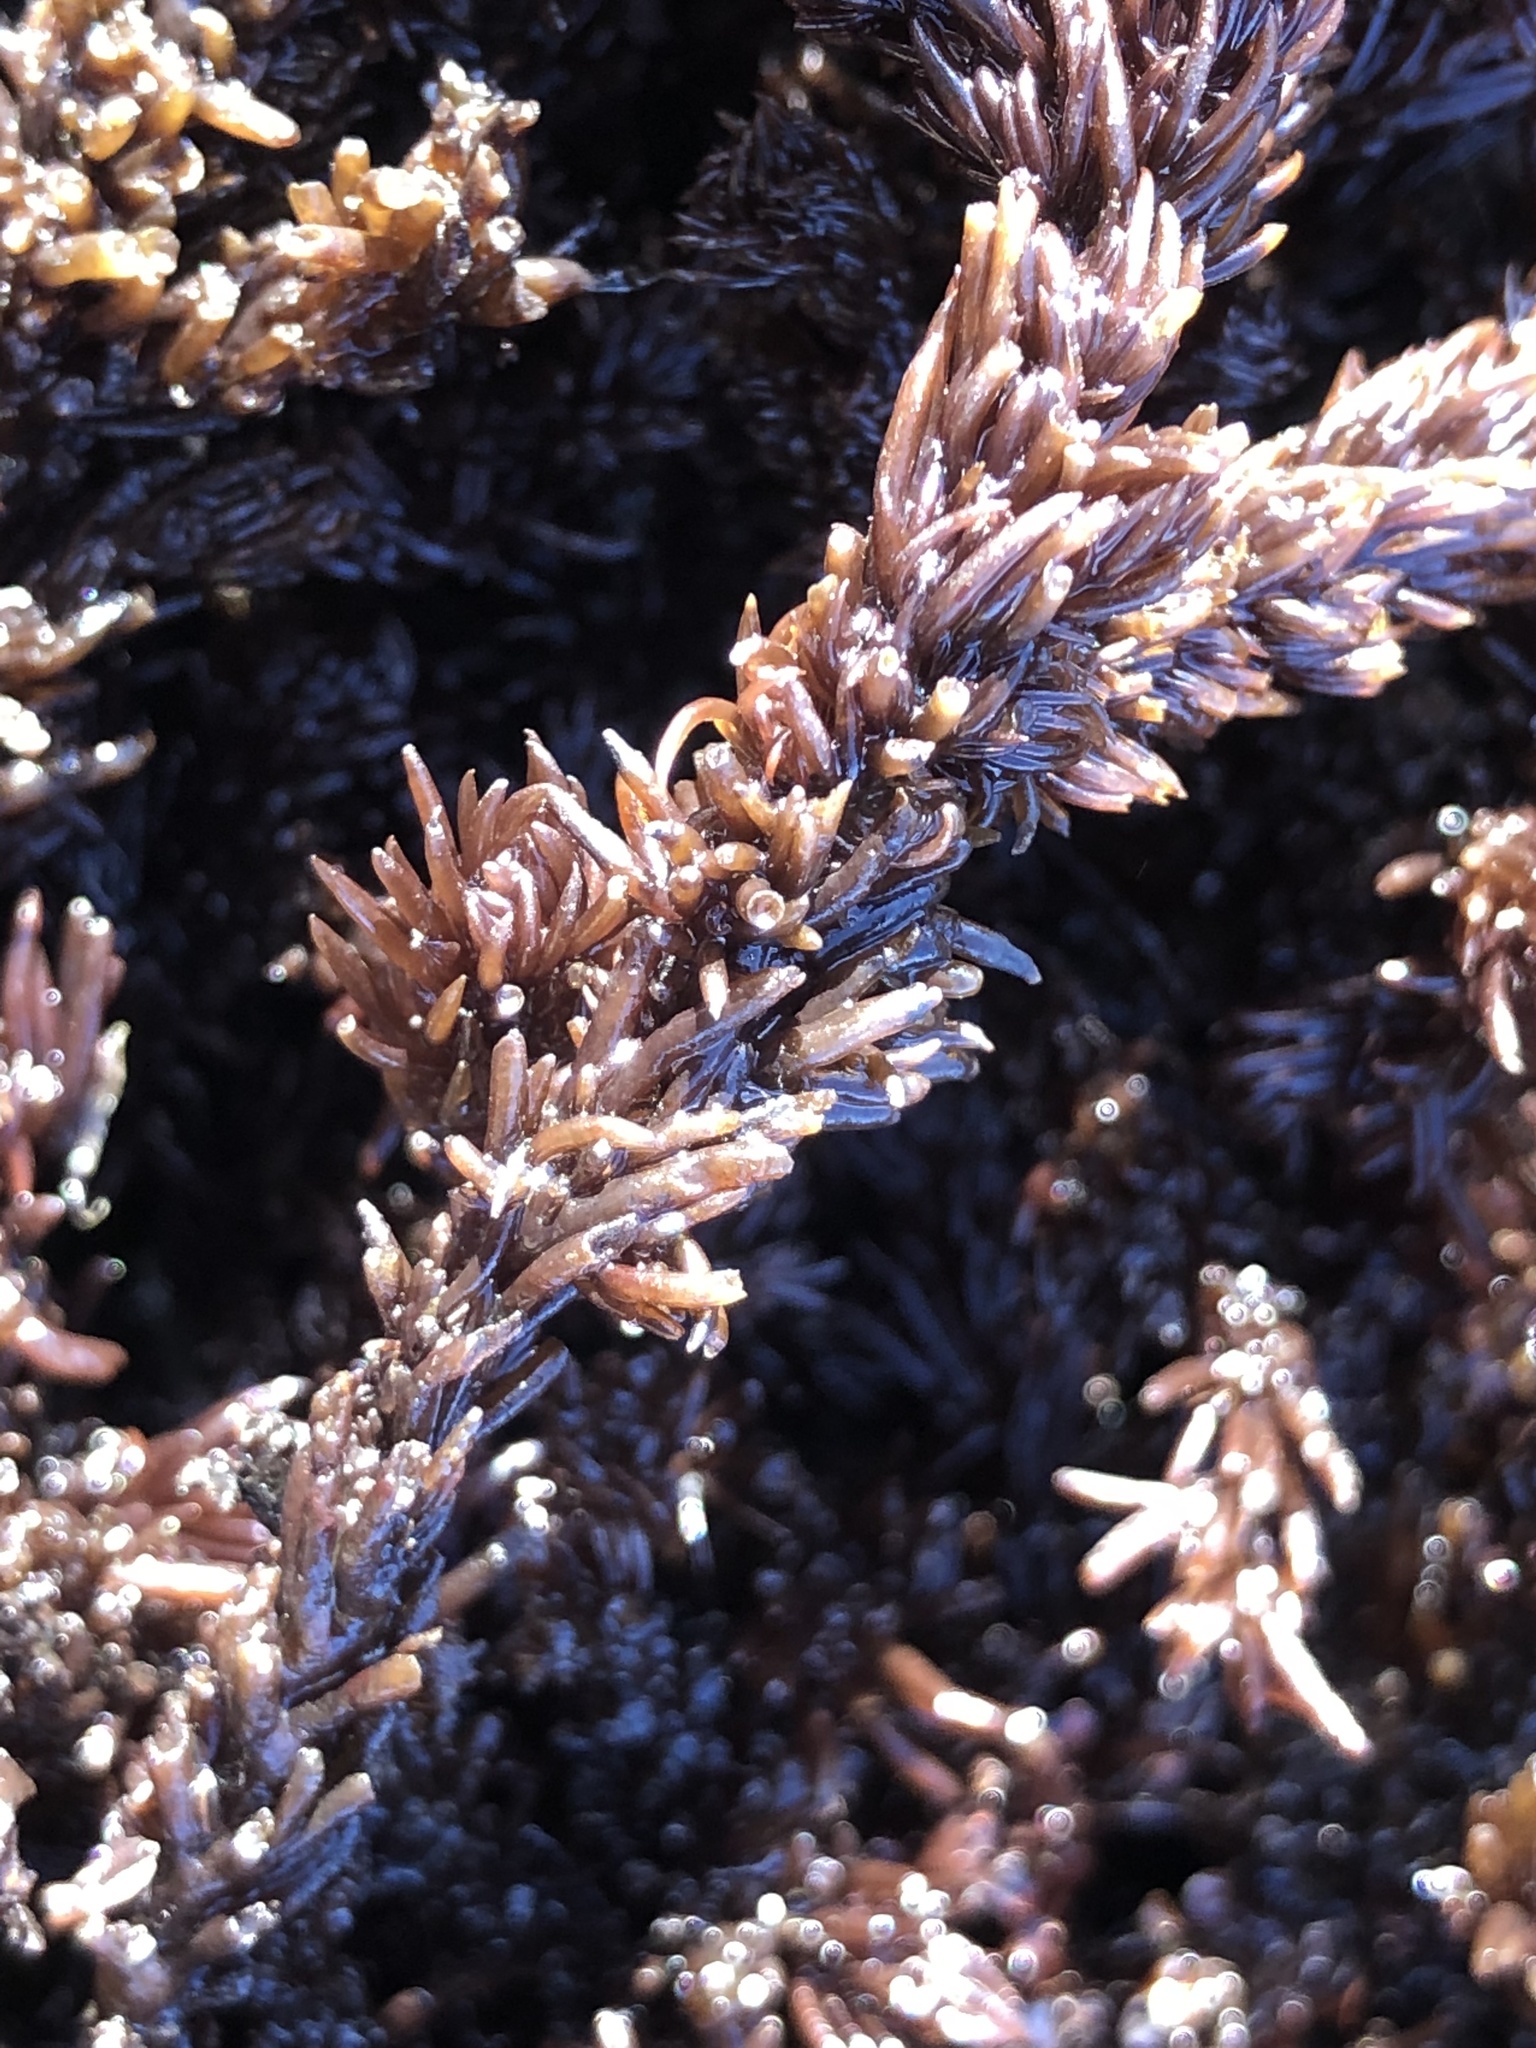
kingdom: Plantae
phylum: Rhodophyta
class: Florideophyceae
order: Ceramiales
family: Rhodomelaceae
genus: Neorhodomela
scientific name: Neorhodomela larix
